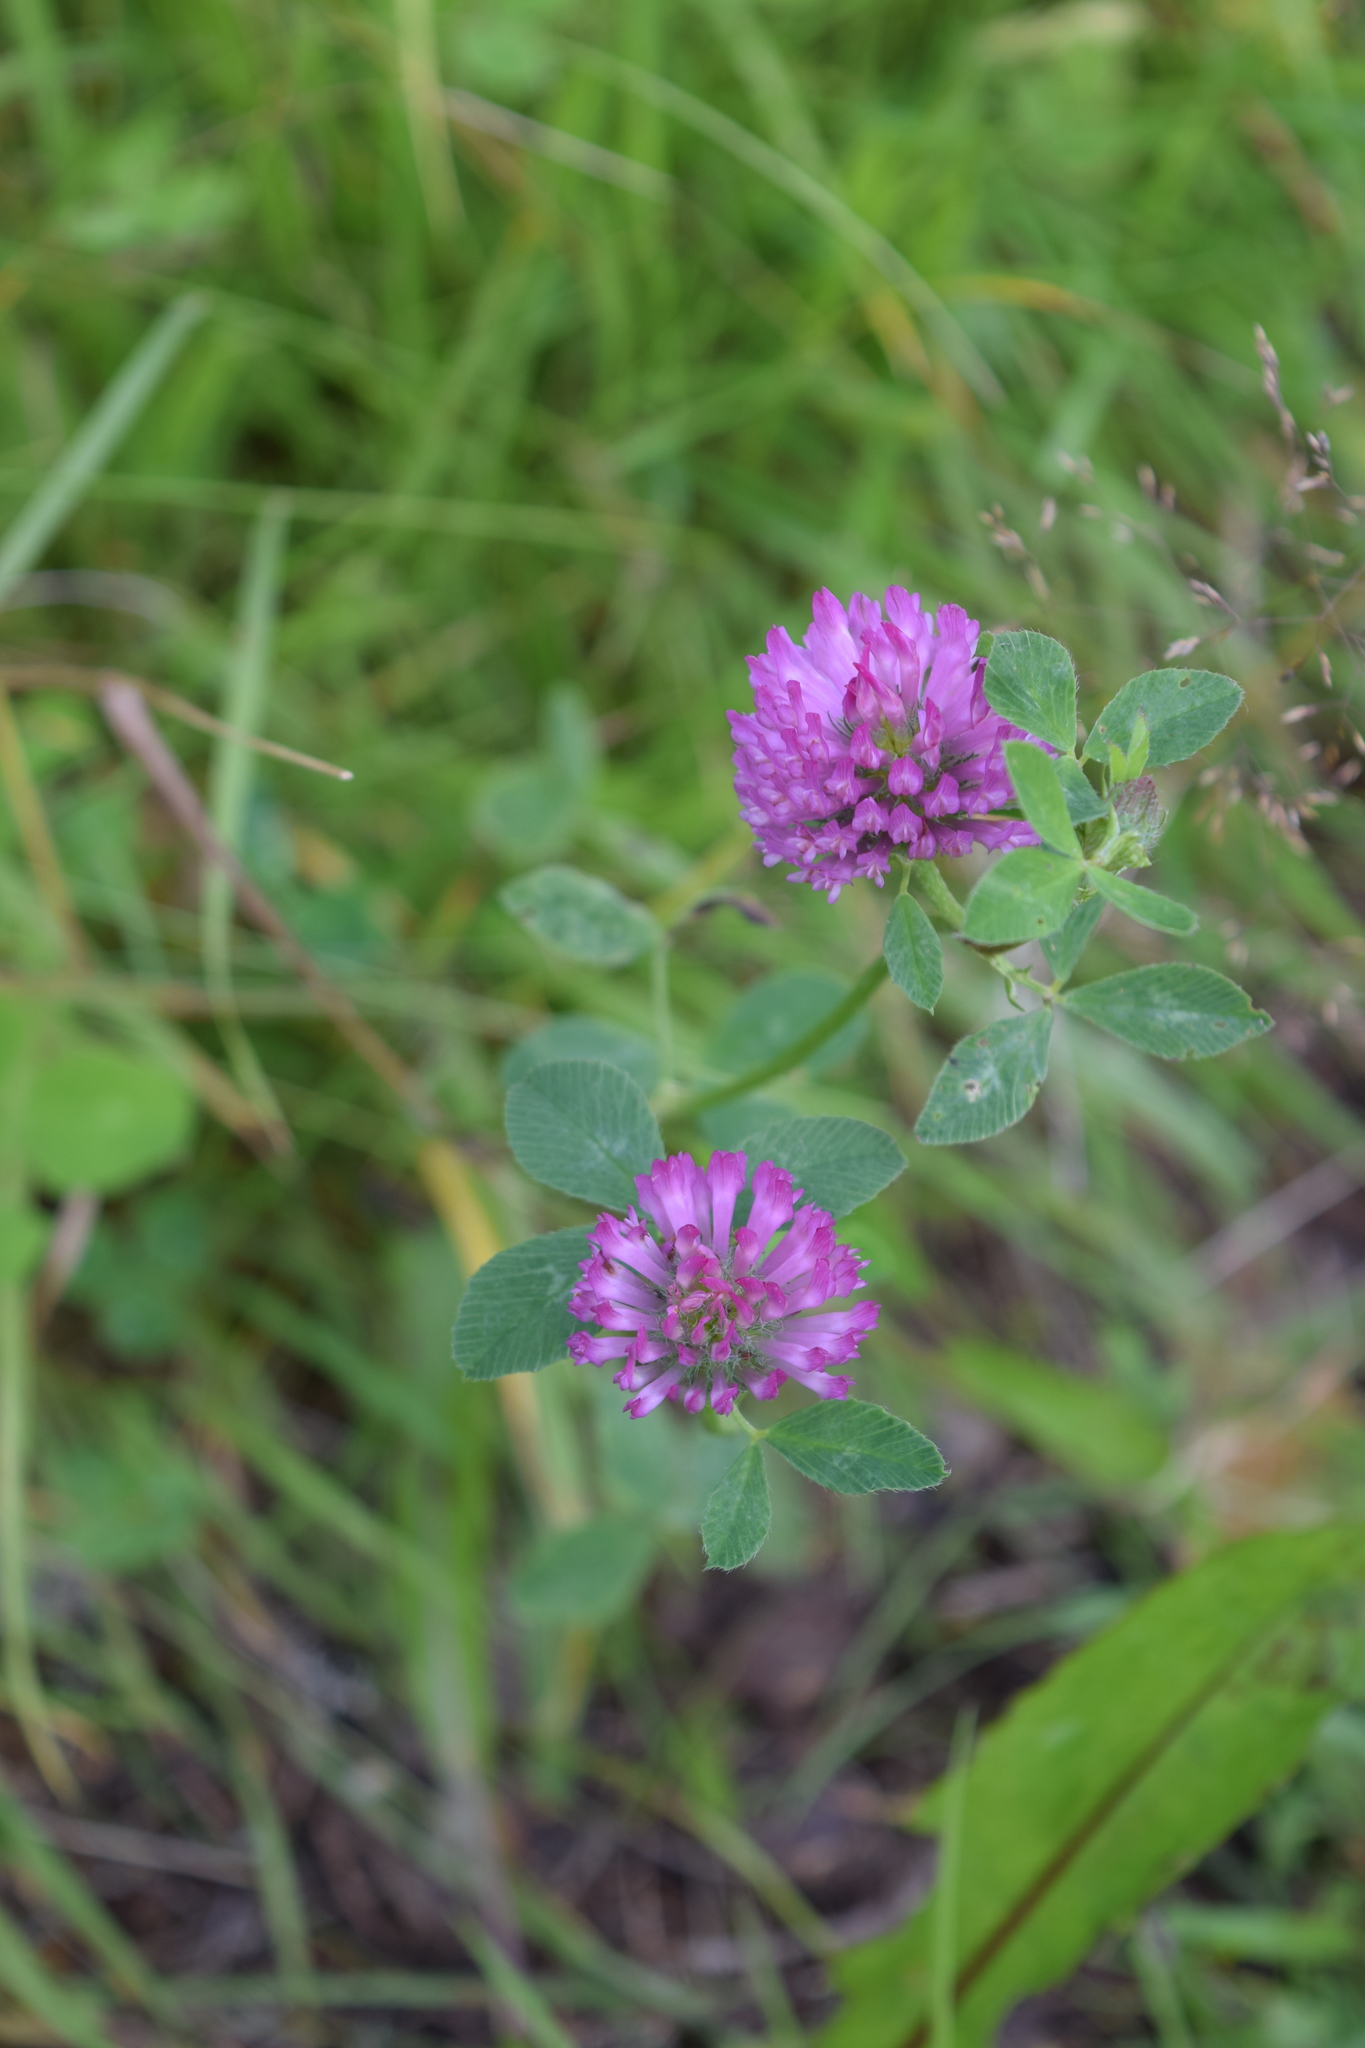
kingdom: Plantae
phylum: Tracheophyta
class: Magnoliopsida
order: Fabales
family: Fabaceae
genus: Trifolium
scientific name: Trifolium pratense
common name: Red clover
